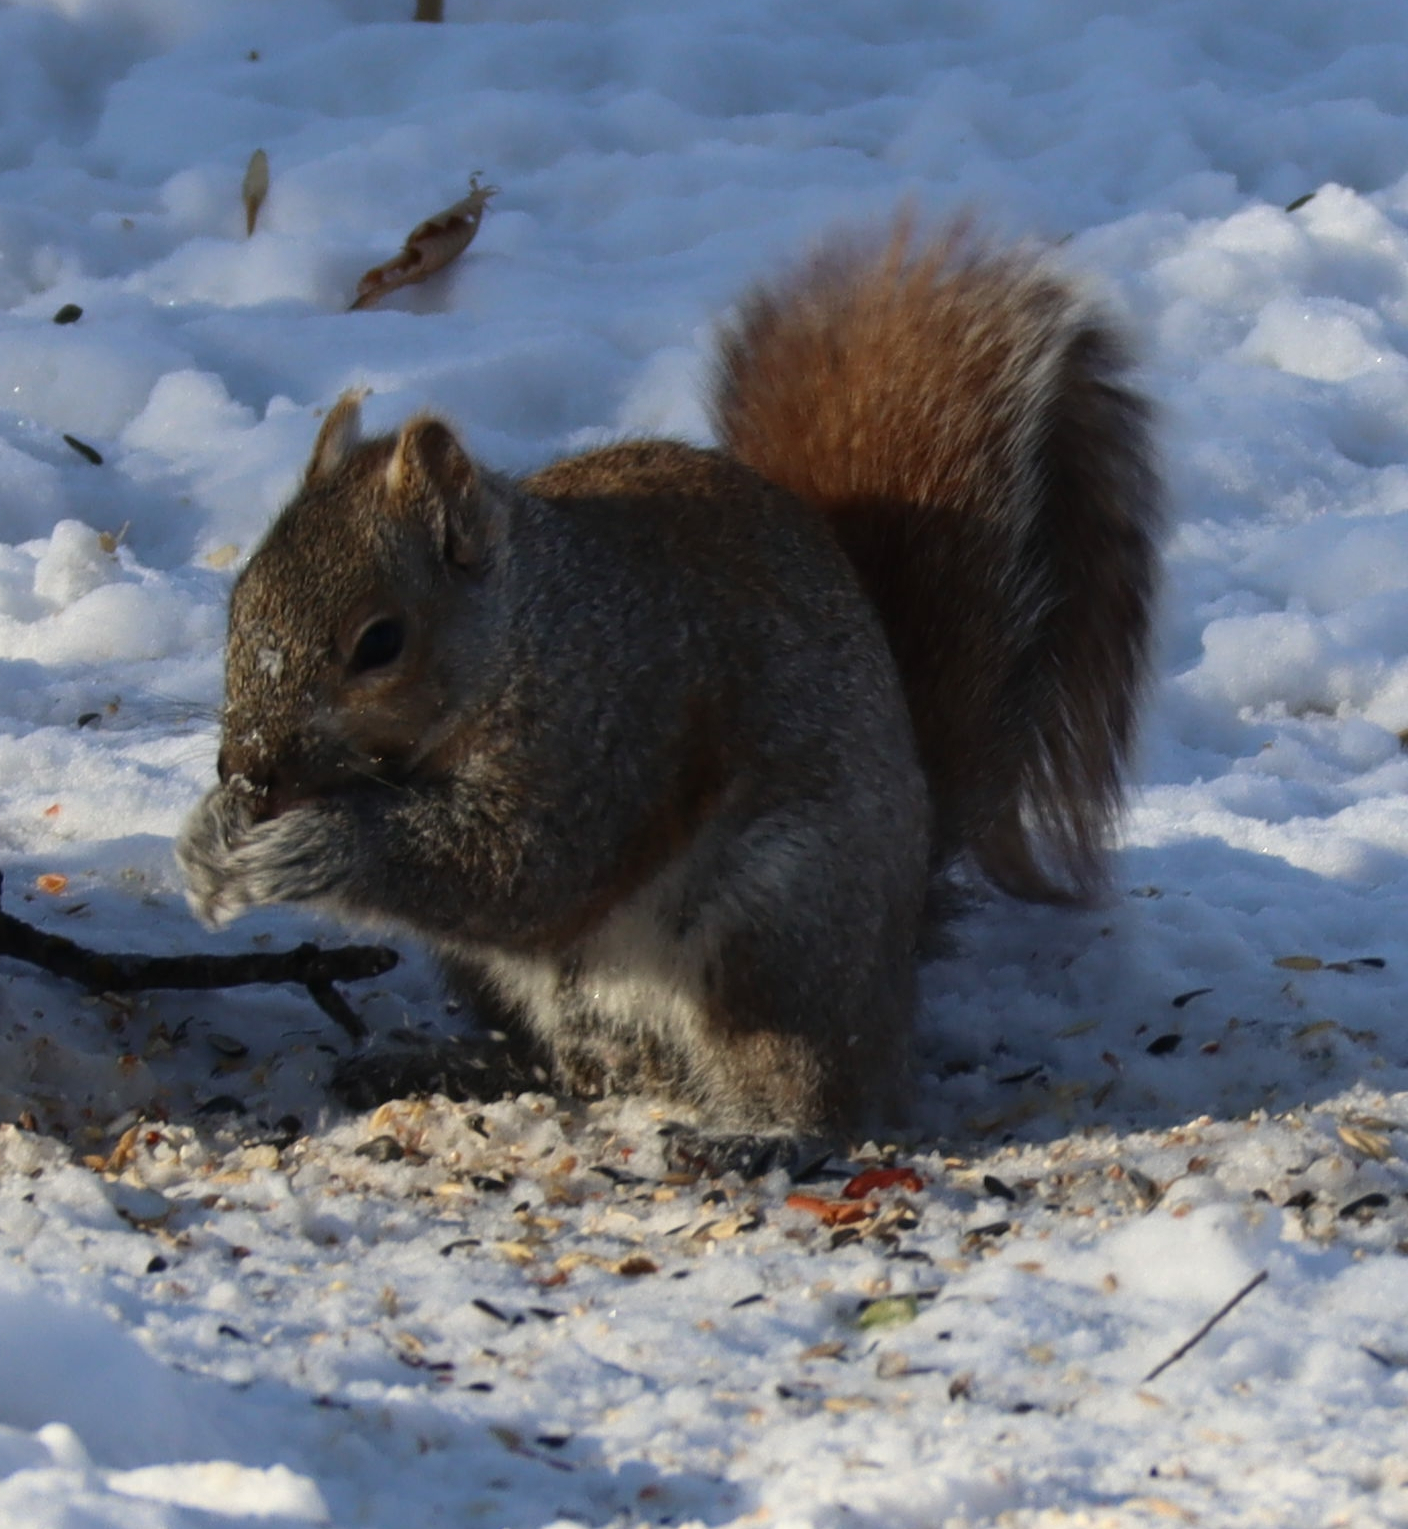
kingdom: Animalia
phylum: Chordata
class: Mammalia
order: Rodentia
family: Sciuridae
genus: Sciurus
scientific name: Sciurus carolinensis
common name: Eastern gray squirrel
